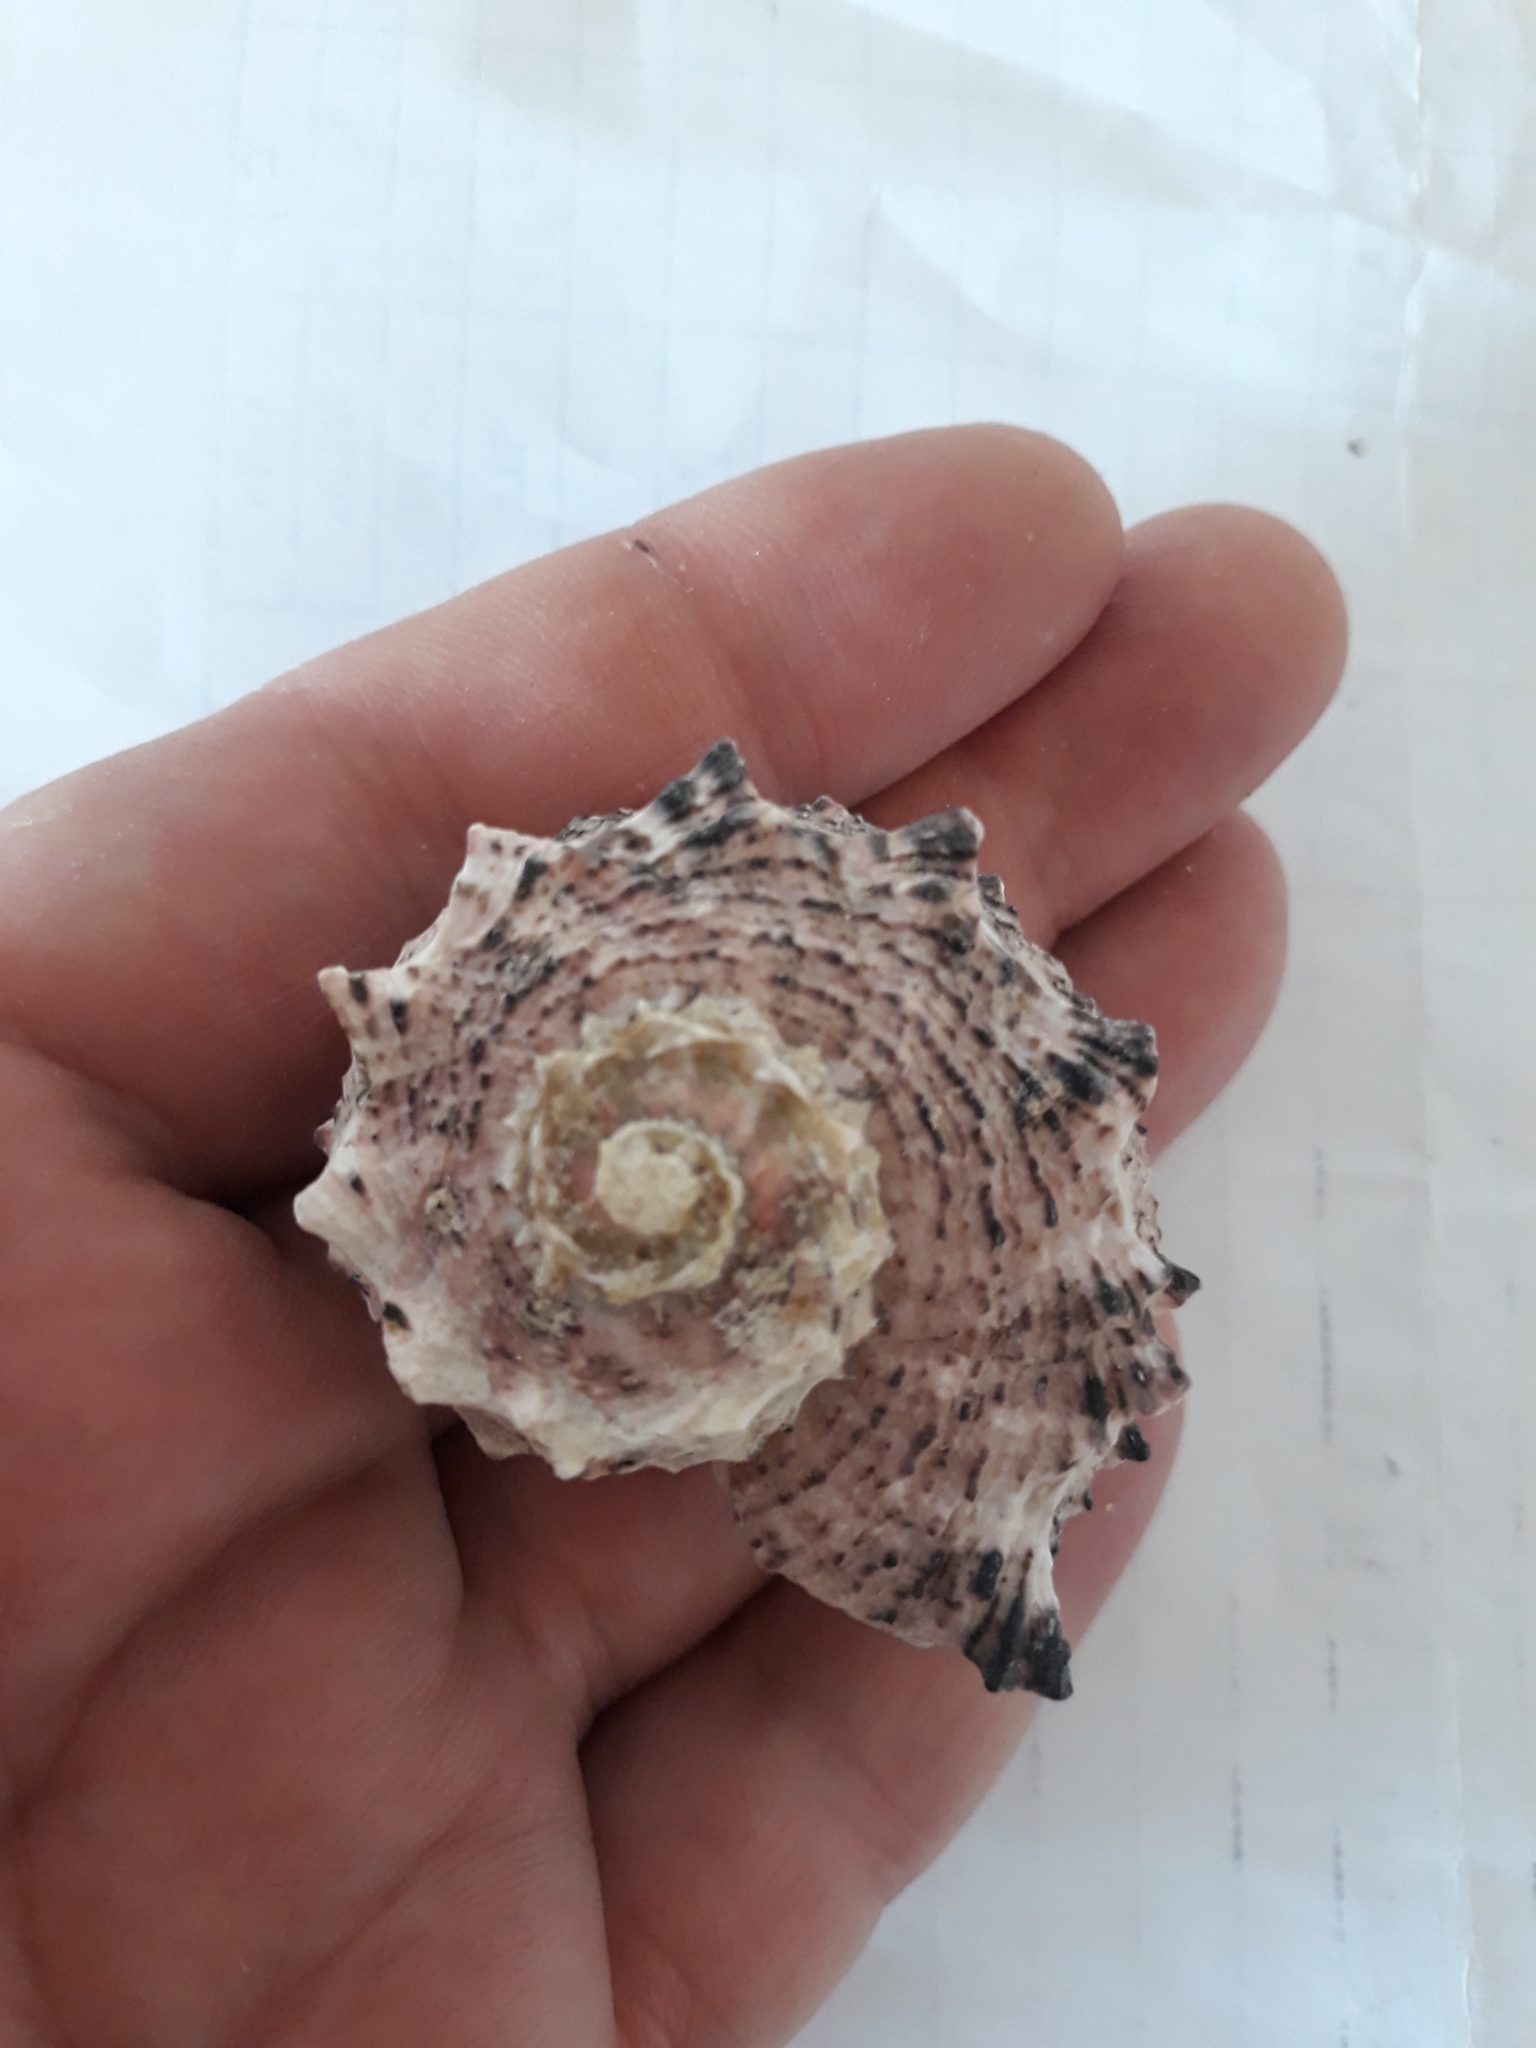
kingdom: Animalia
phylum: Mollusca
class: Gastropoda
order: Trochida
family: Angariidae
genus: Angaria
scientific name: Angaria delphinus
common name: Dolphin shell
